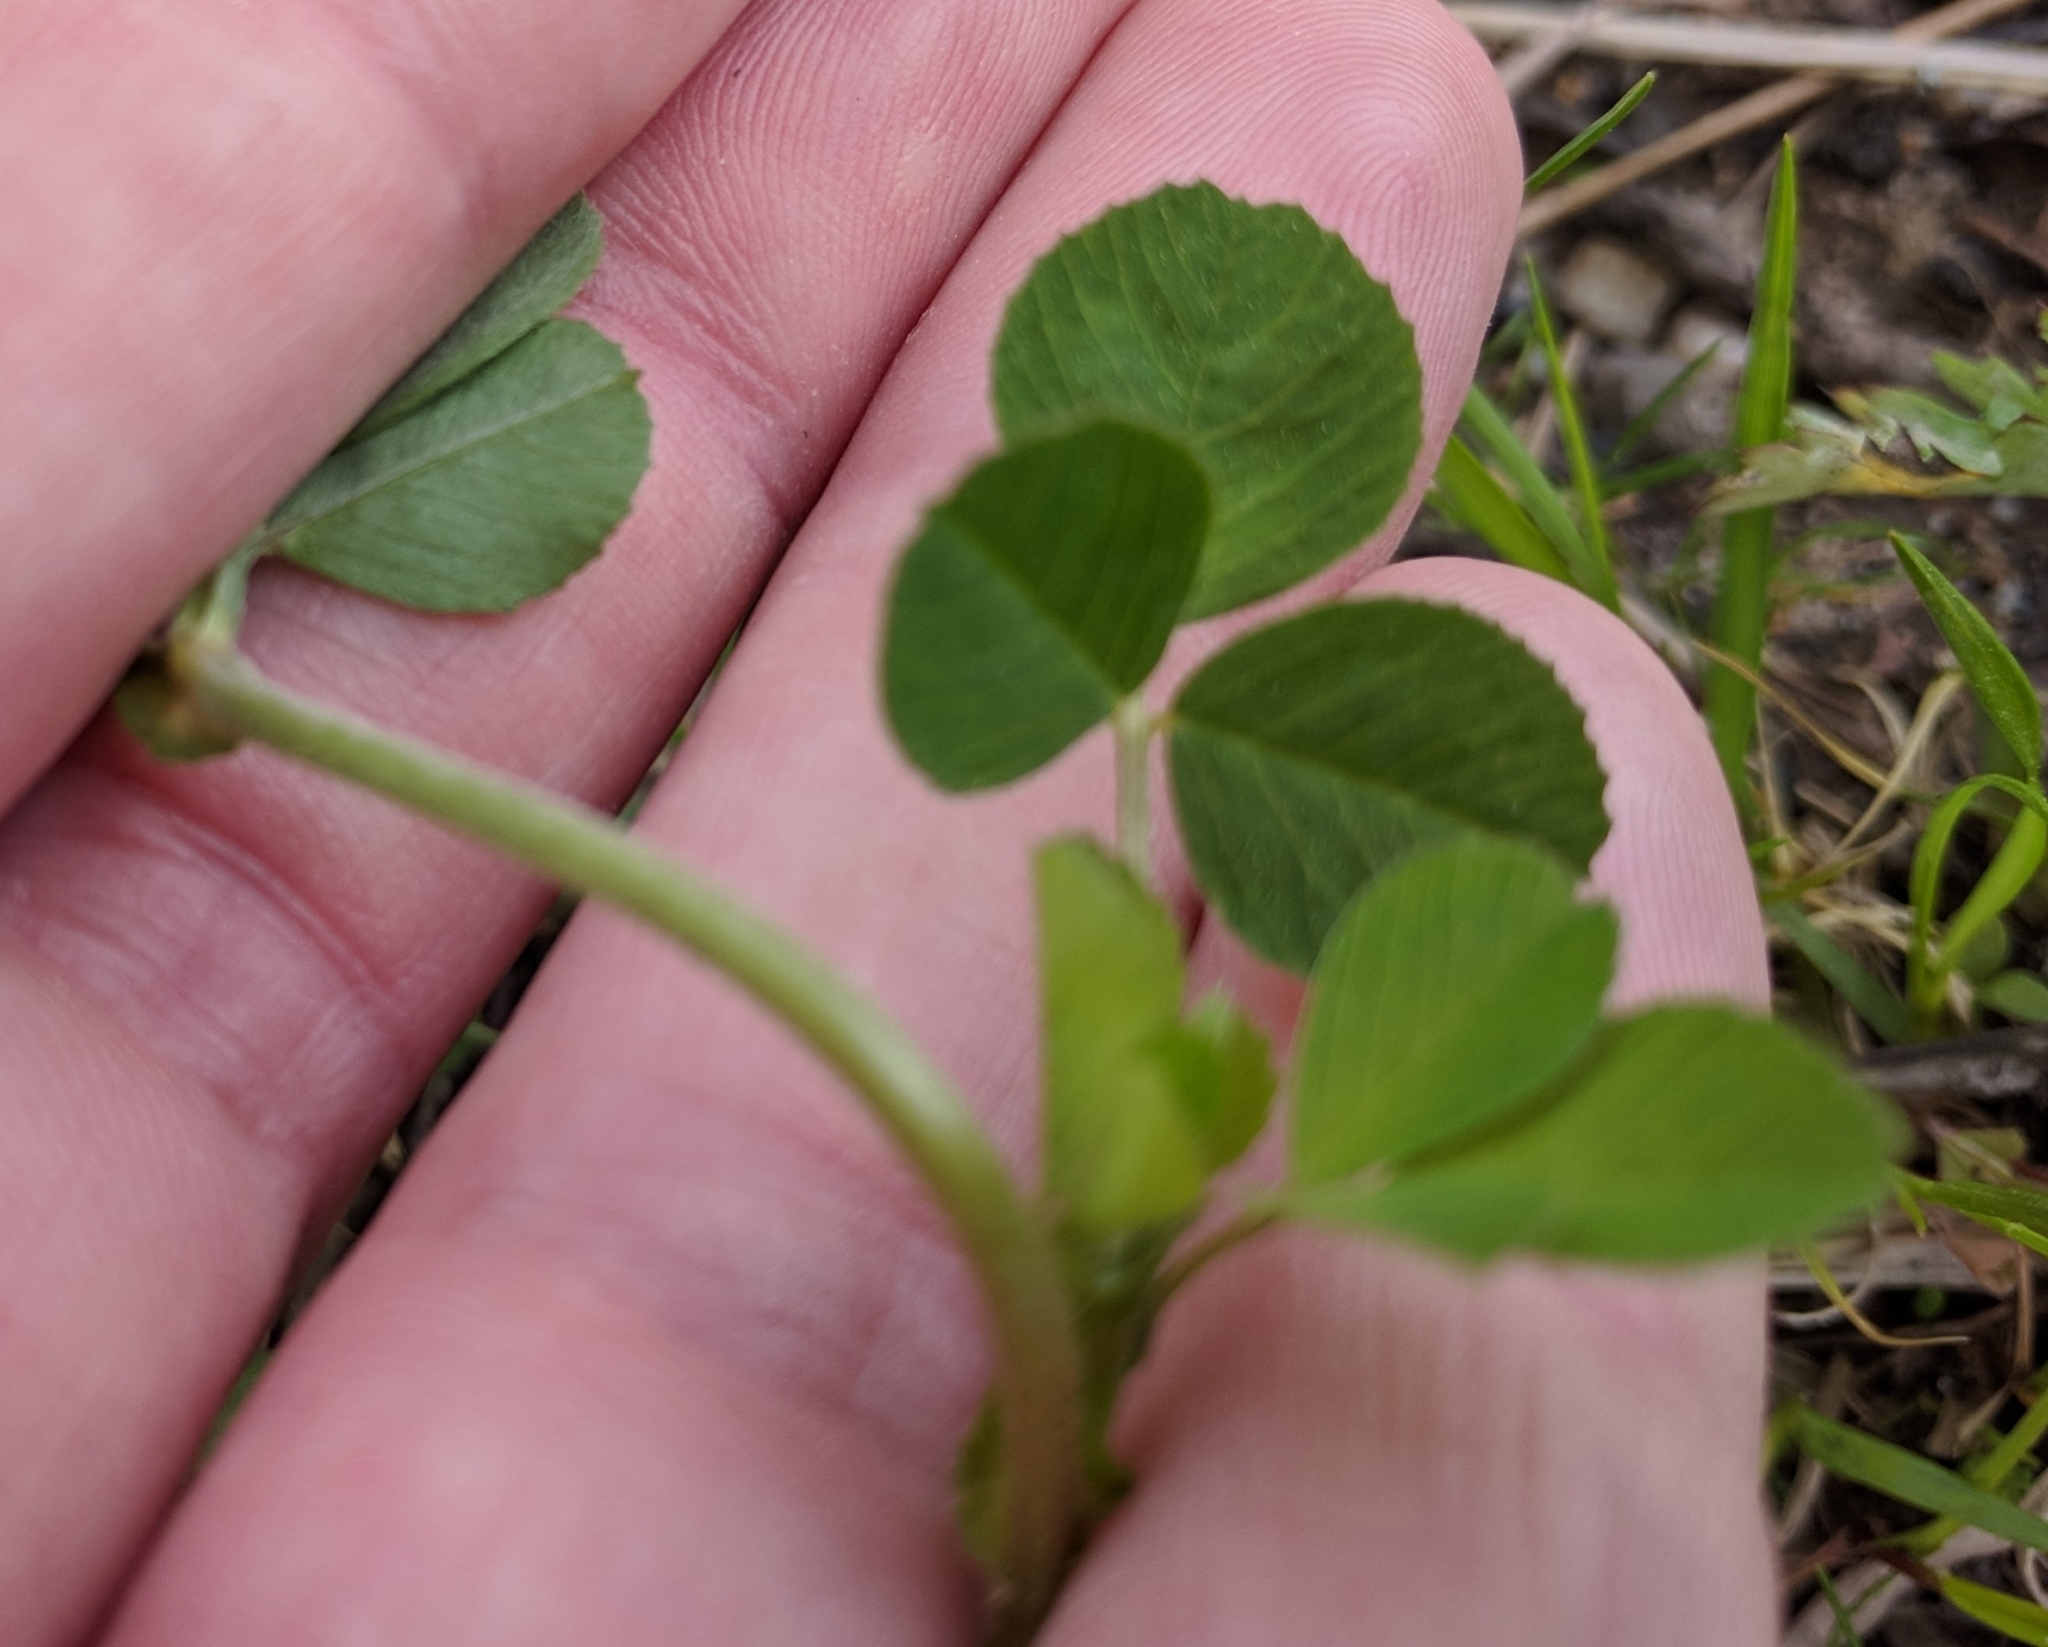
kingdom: Plantae
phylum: Tracheophyta
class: Magnoliopsida
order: Fabales
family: Fabaceae
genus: Medicago
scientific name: Medicago lupulina
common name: Black medick
